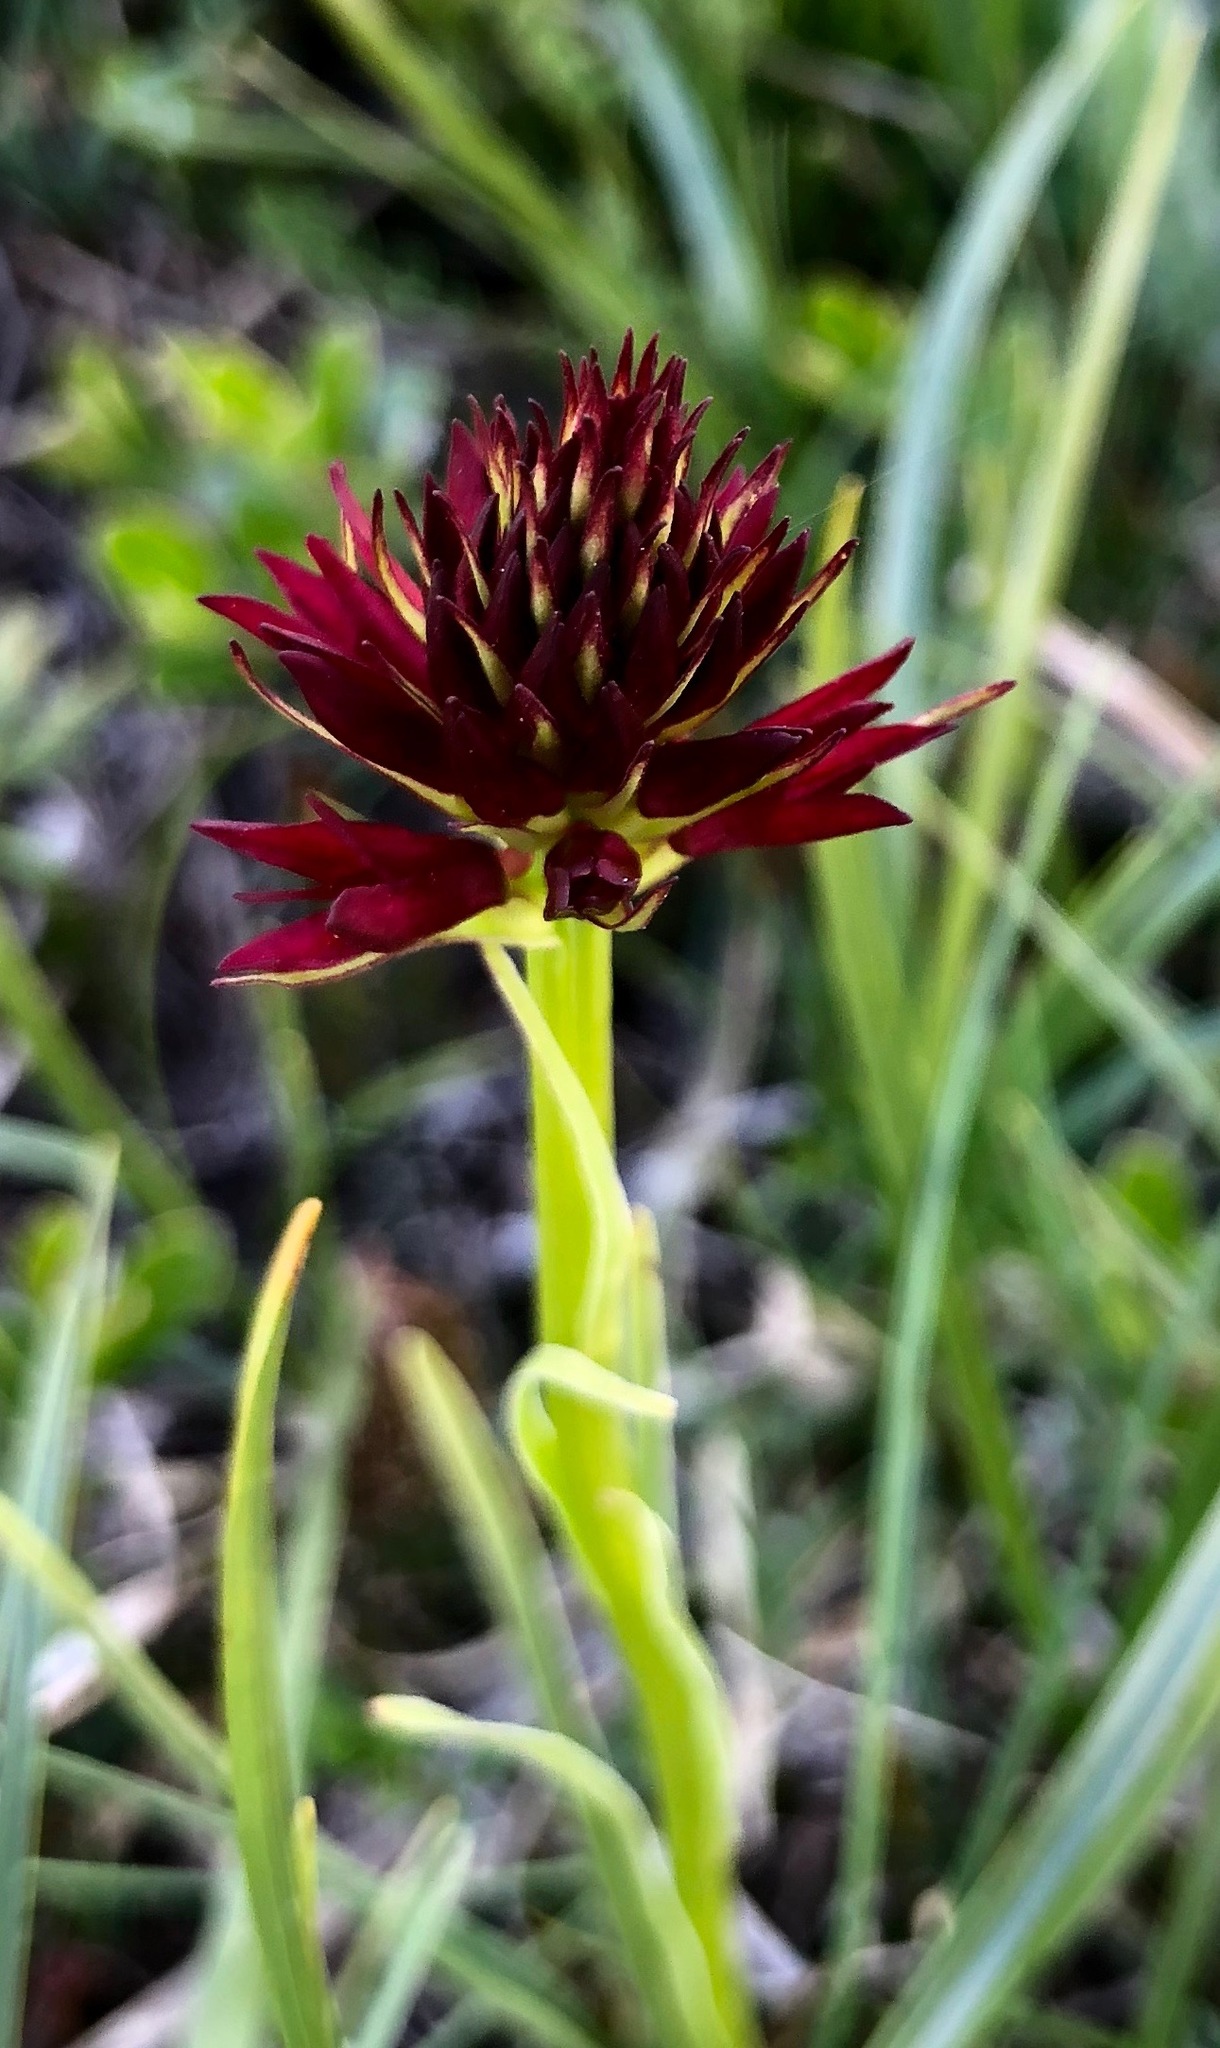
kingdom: Plantae
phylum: Tracheophyta
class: Liliopsida
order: Asparagales
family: Orchidaceae
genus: Gymnadenia
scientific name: Gymnadenia rhellicani
